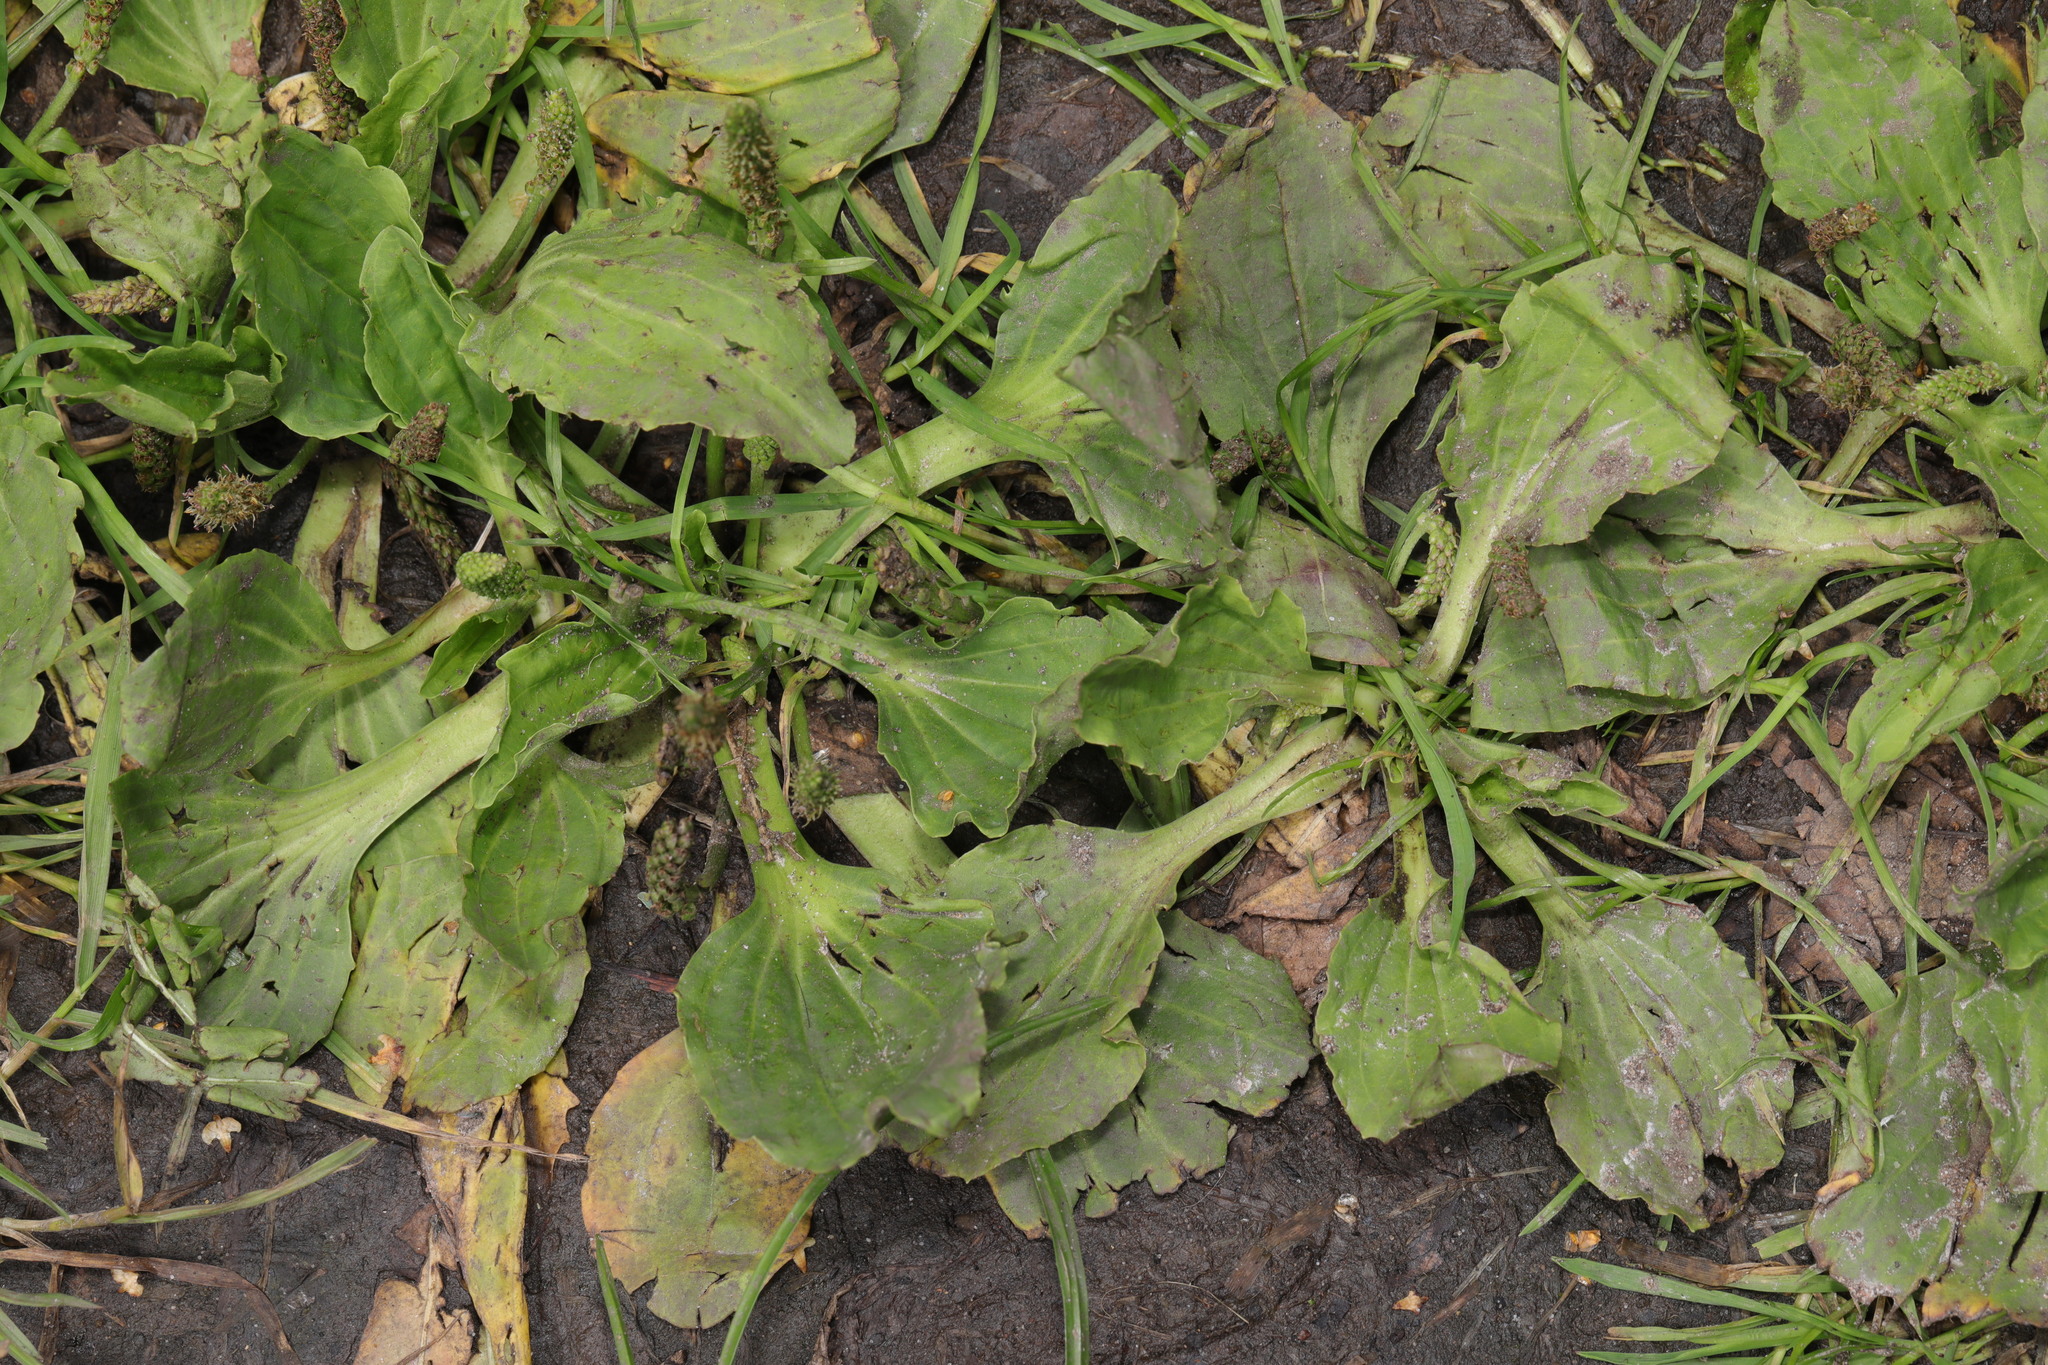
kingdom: Plantae
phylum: Tracheophyta
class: Magnoliopsida
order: Lamiales
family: Plantaginaceae
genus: Plantago
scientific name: Plantago major
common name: Common plantain
